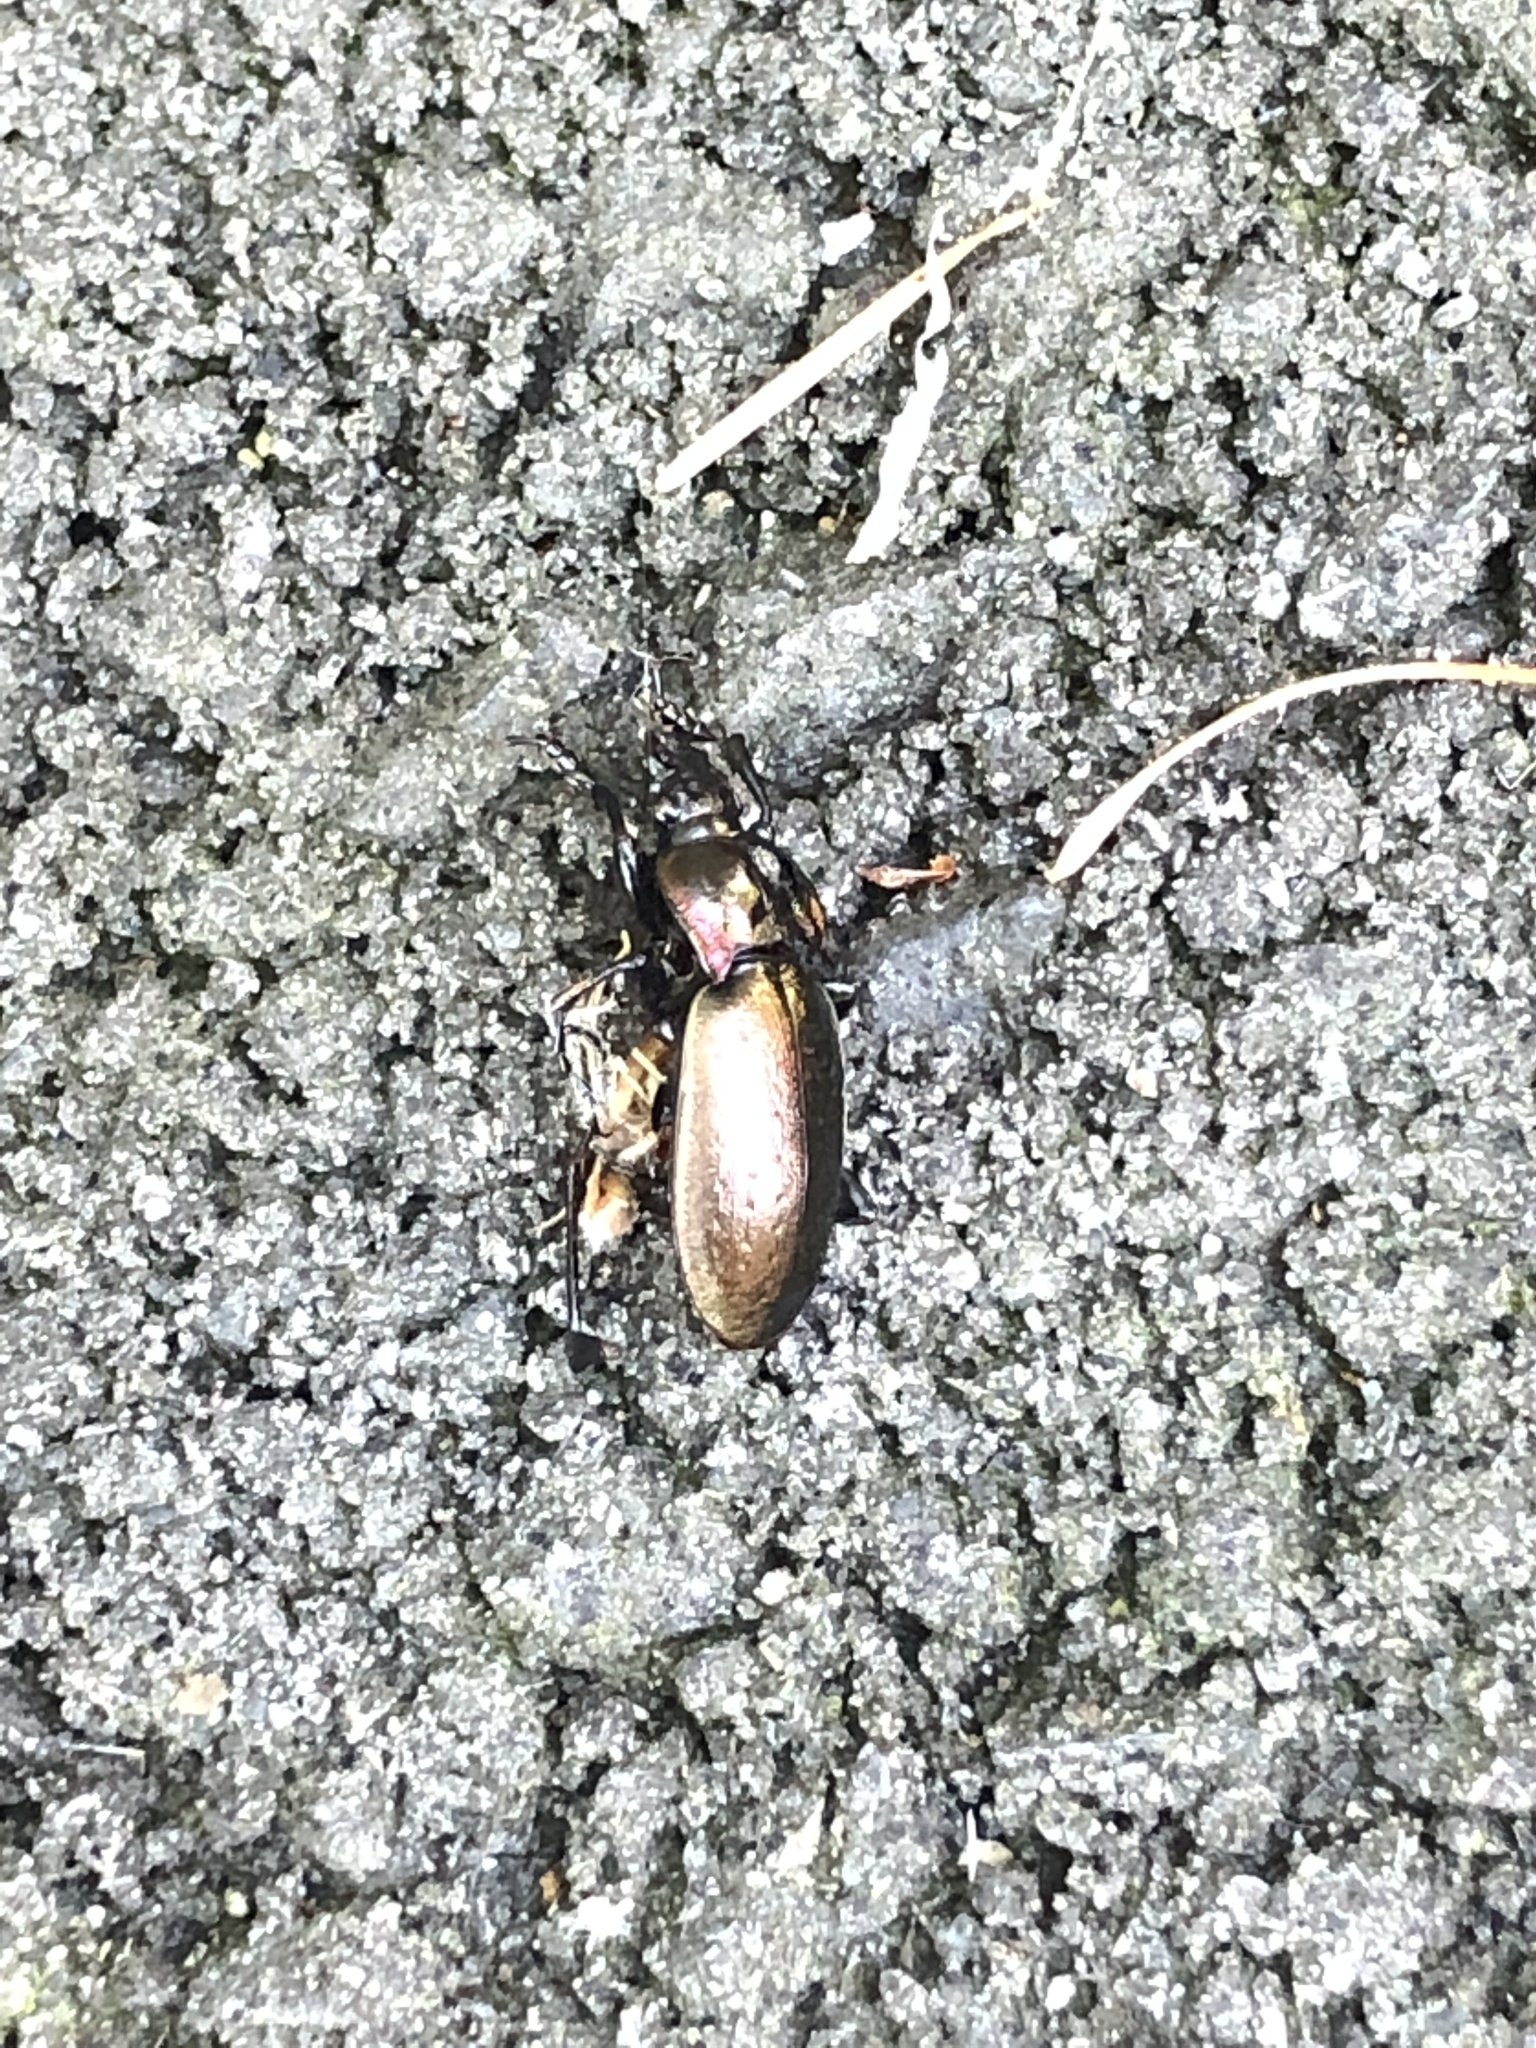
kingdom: Animalia
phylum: Arthropoda
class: Insecta
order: Coleoptera
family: Carabidae
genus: Carabus
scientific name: Carabus nemoralis
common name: European ground beetle
